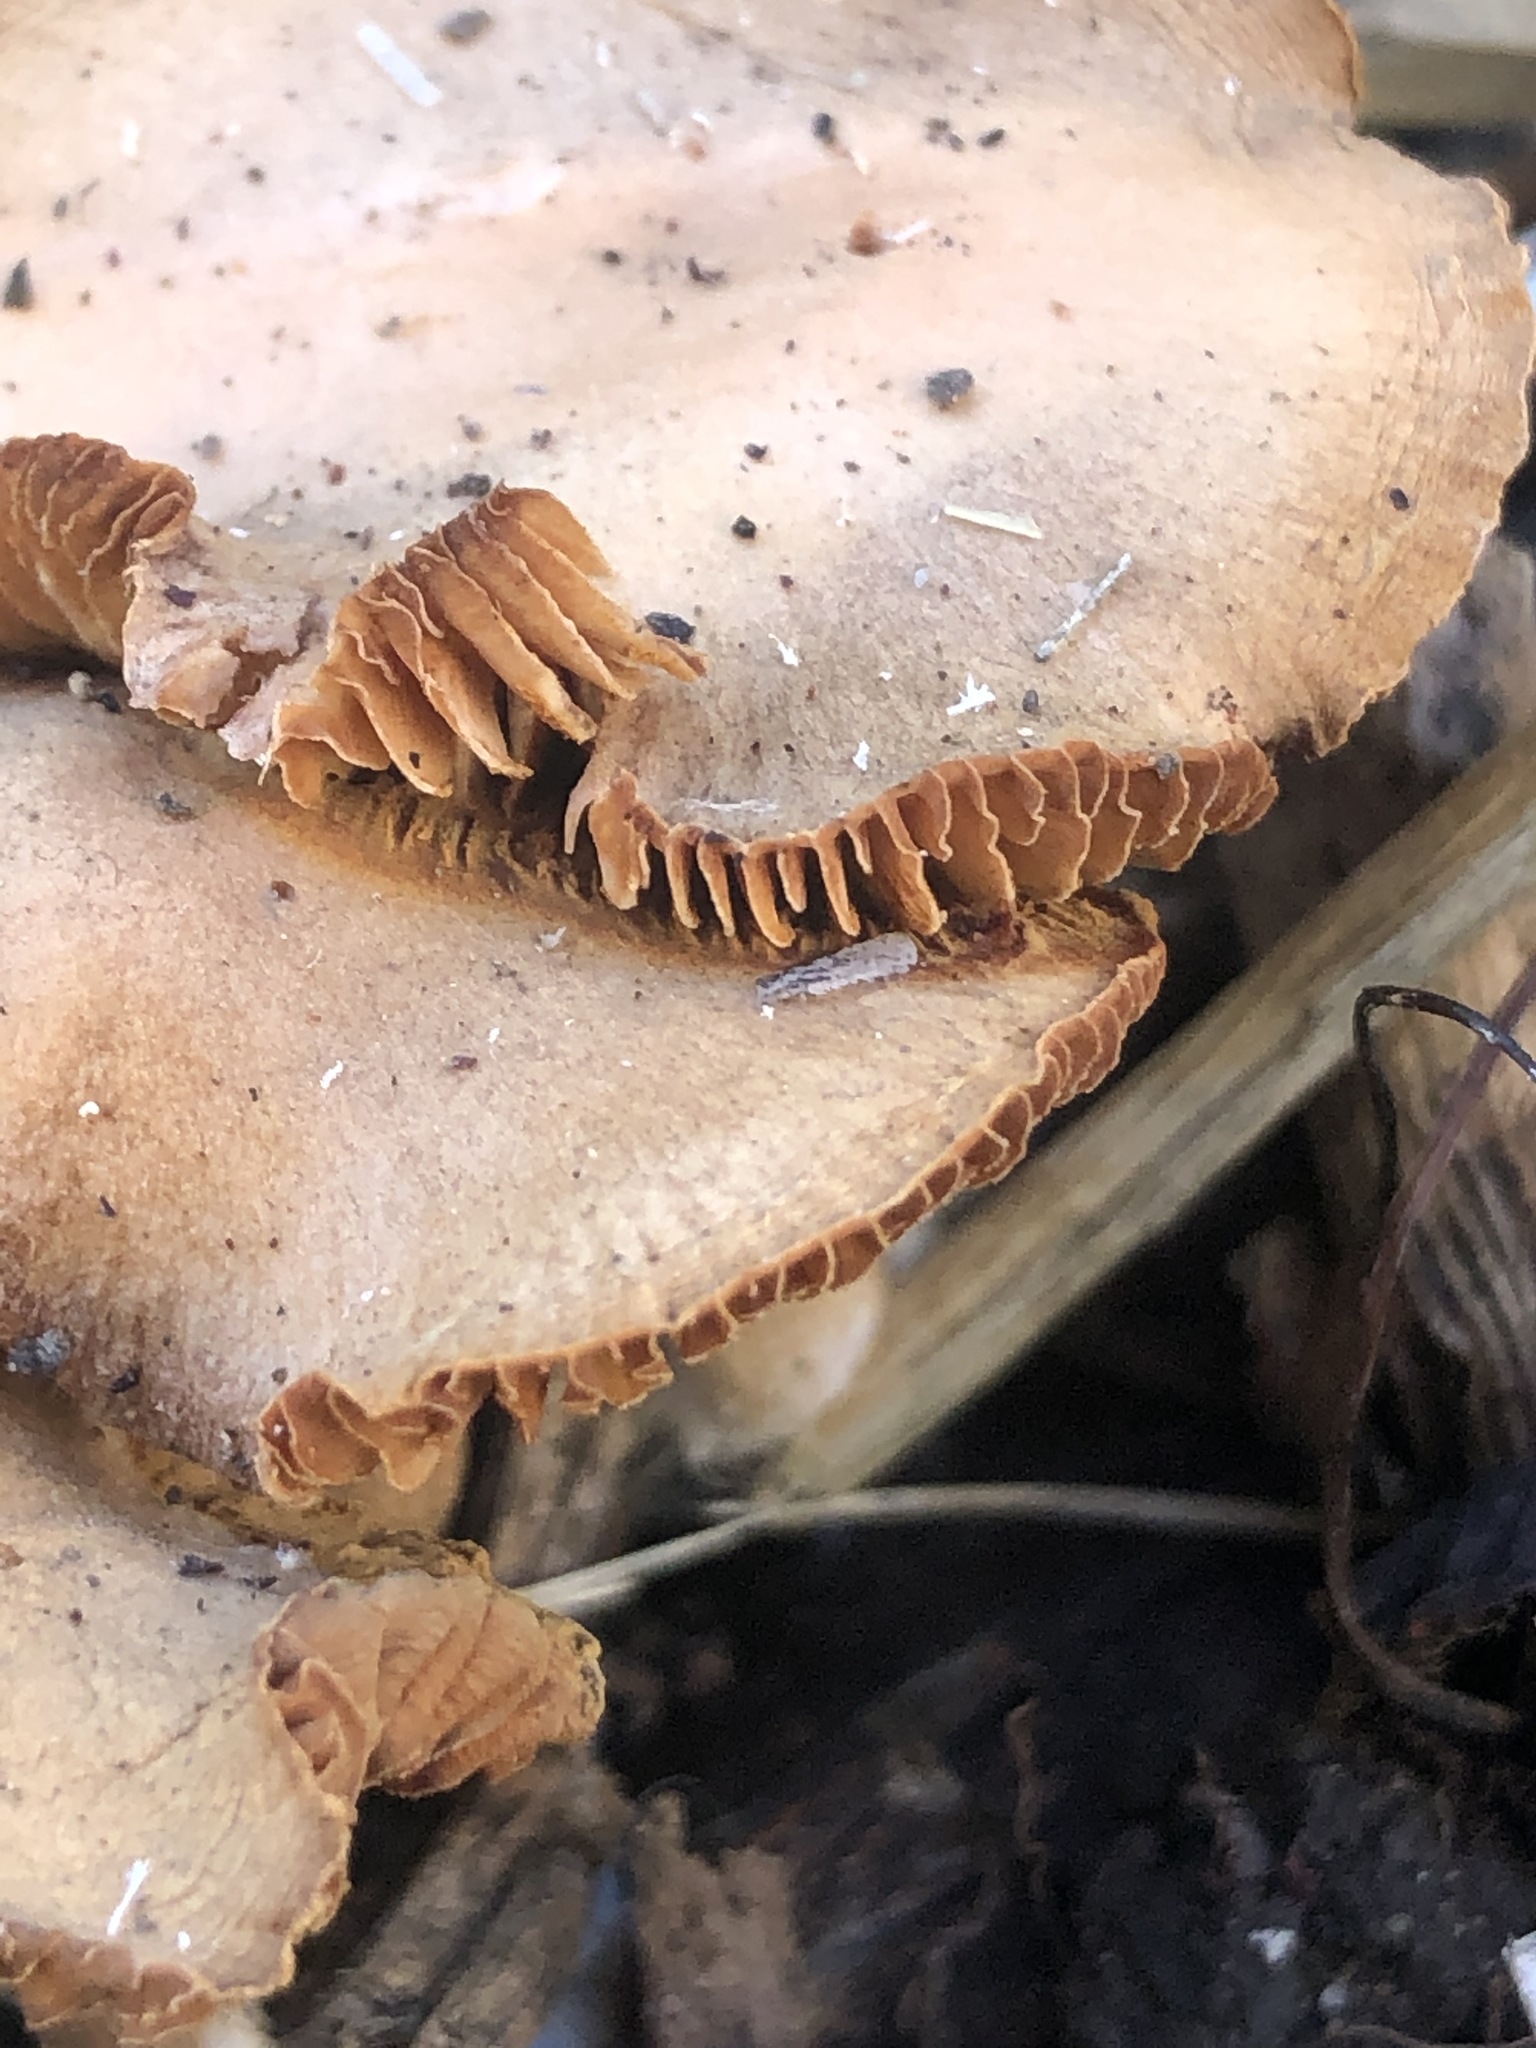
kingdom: Fungi
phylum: Basidiomycota
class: Agaricomycetes
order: Agaricales
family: Tubariaceae
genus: Tubaria
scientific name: Tubaria furfuracea
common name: Scurfy twiglet
